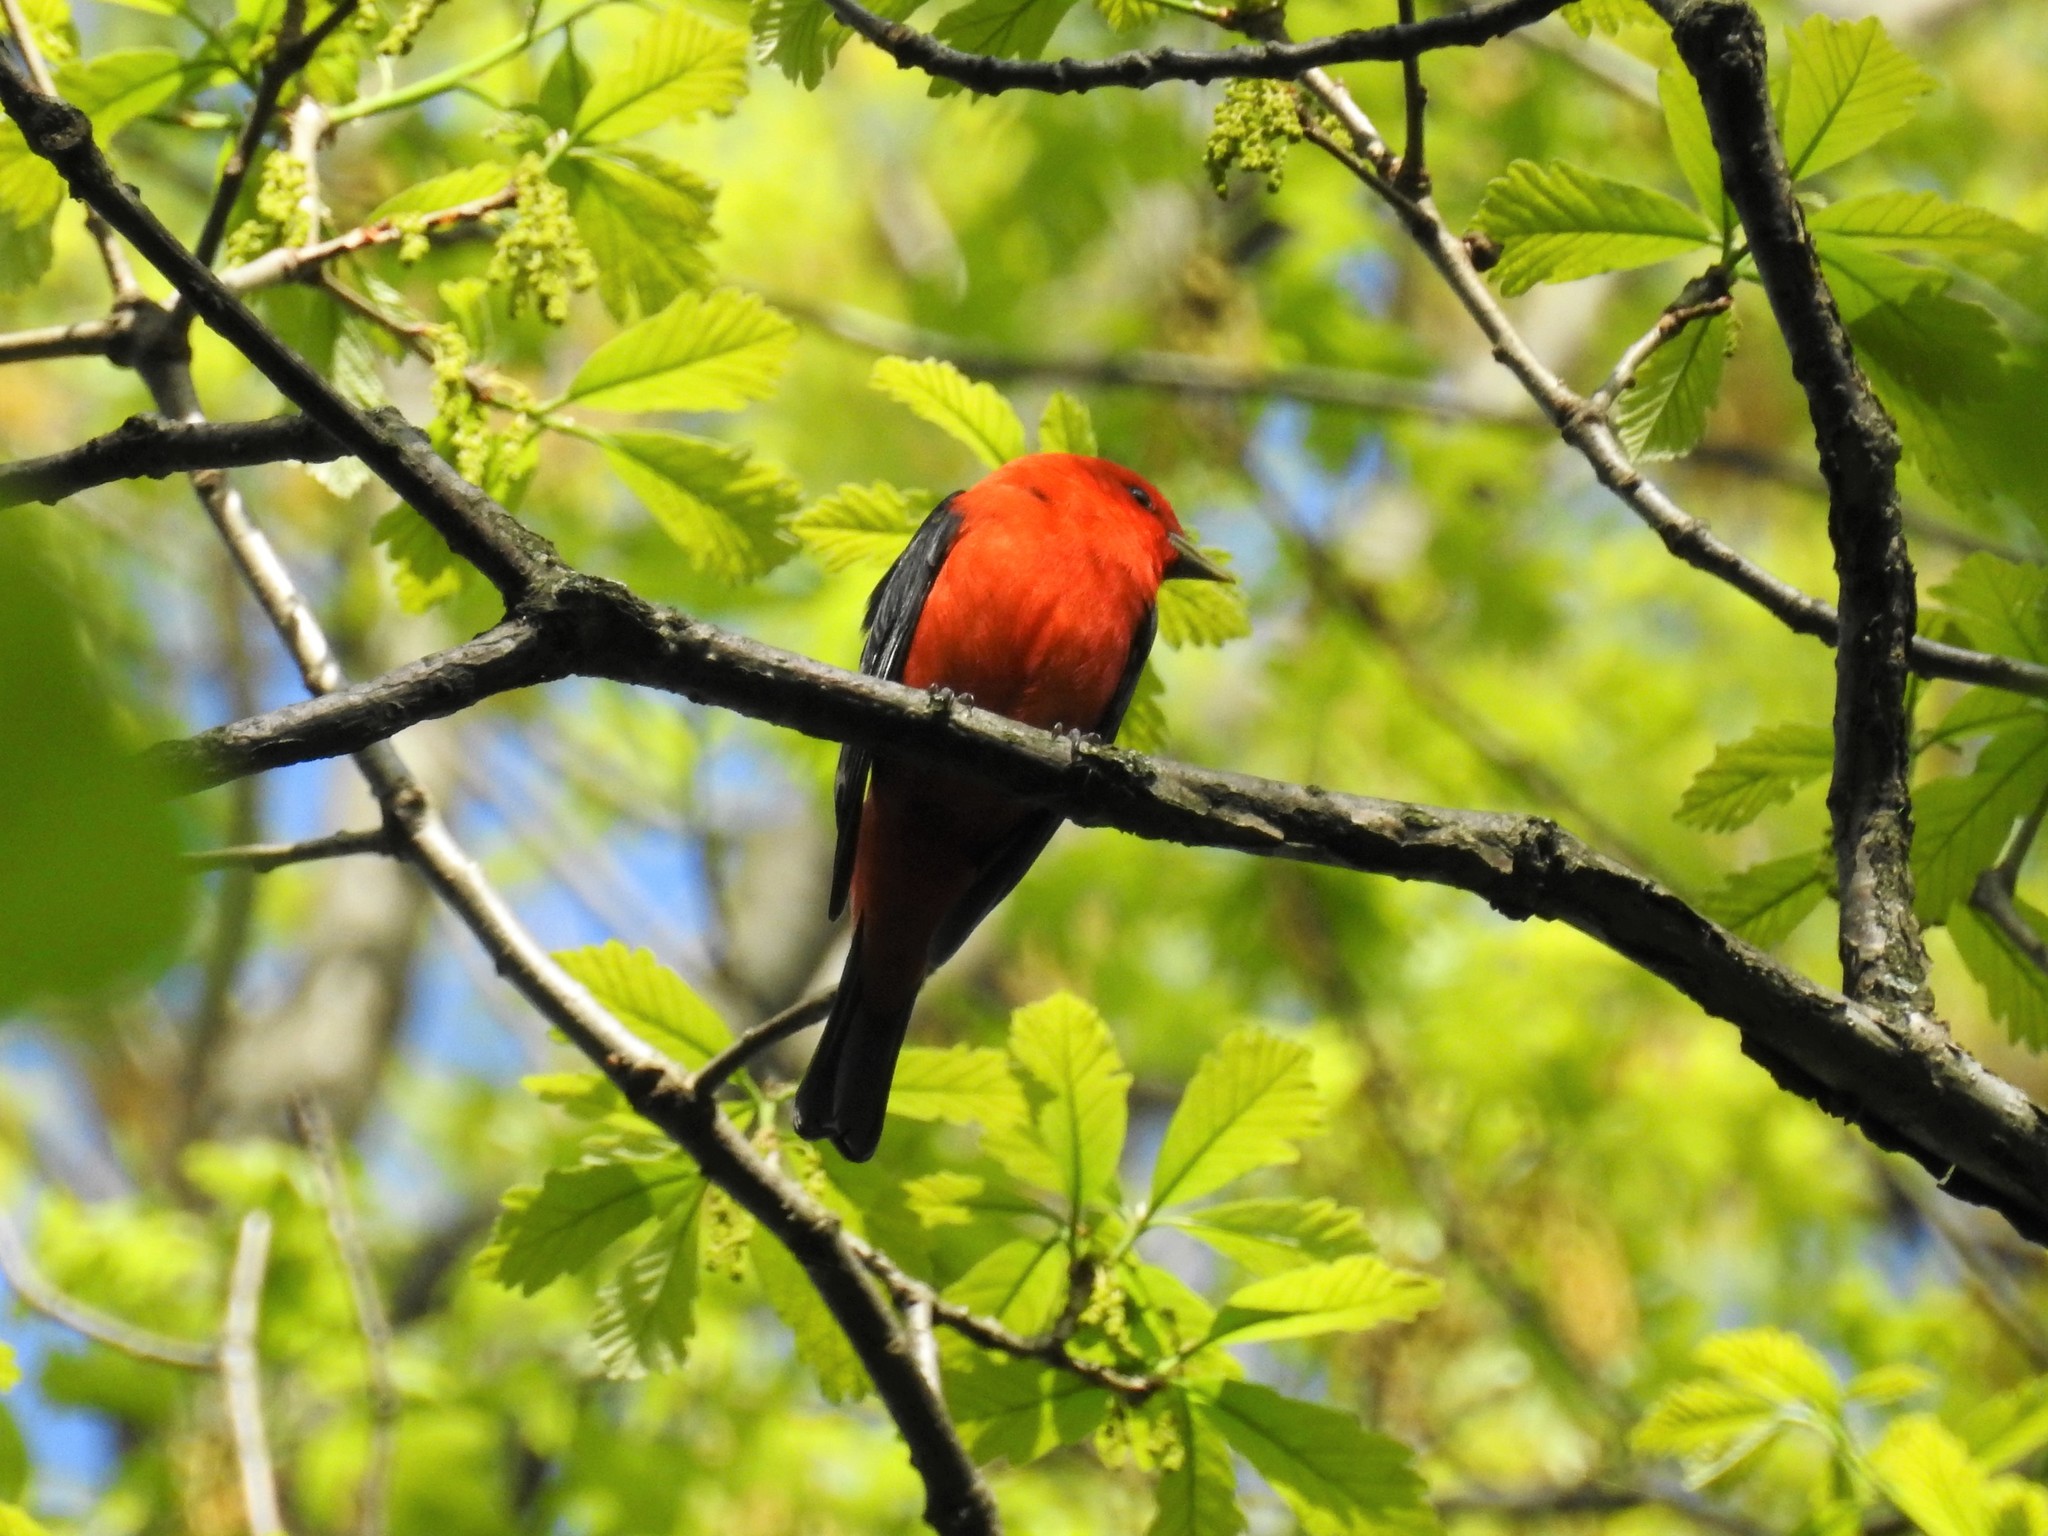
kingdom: Animalia
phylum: Chordata
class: Aves
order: Passeriformes
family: Cardinalidae
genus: Piranga
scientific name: Piranga olivacea
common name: Scarlet tanager
